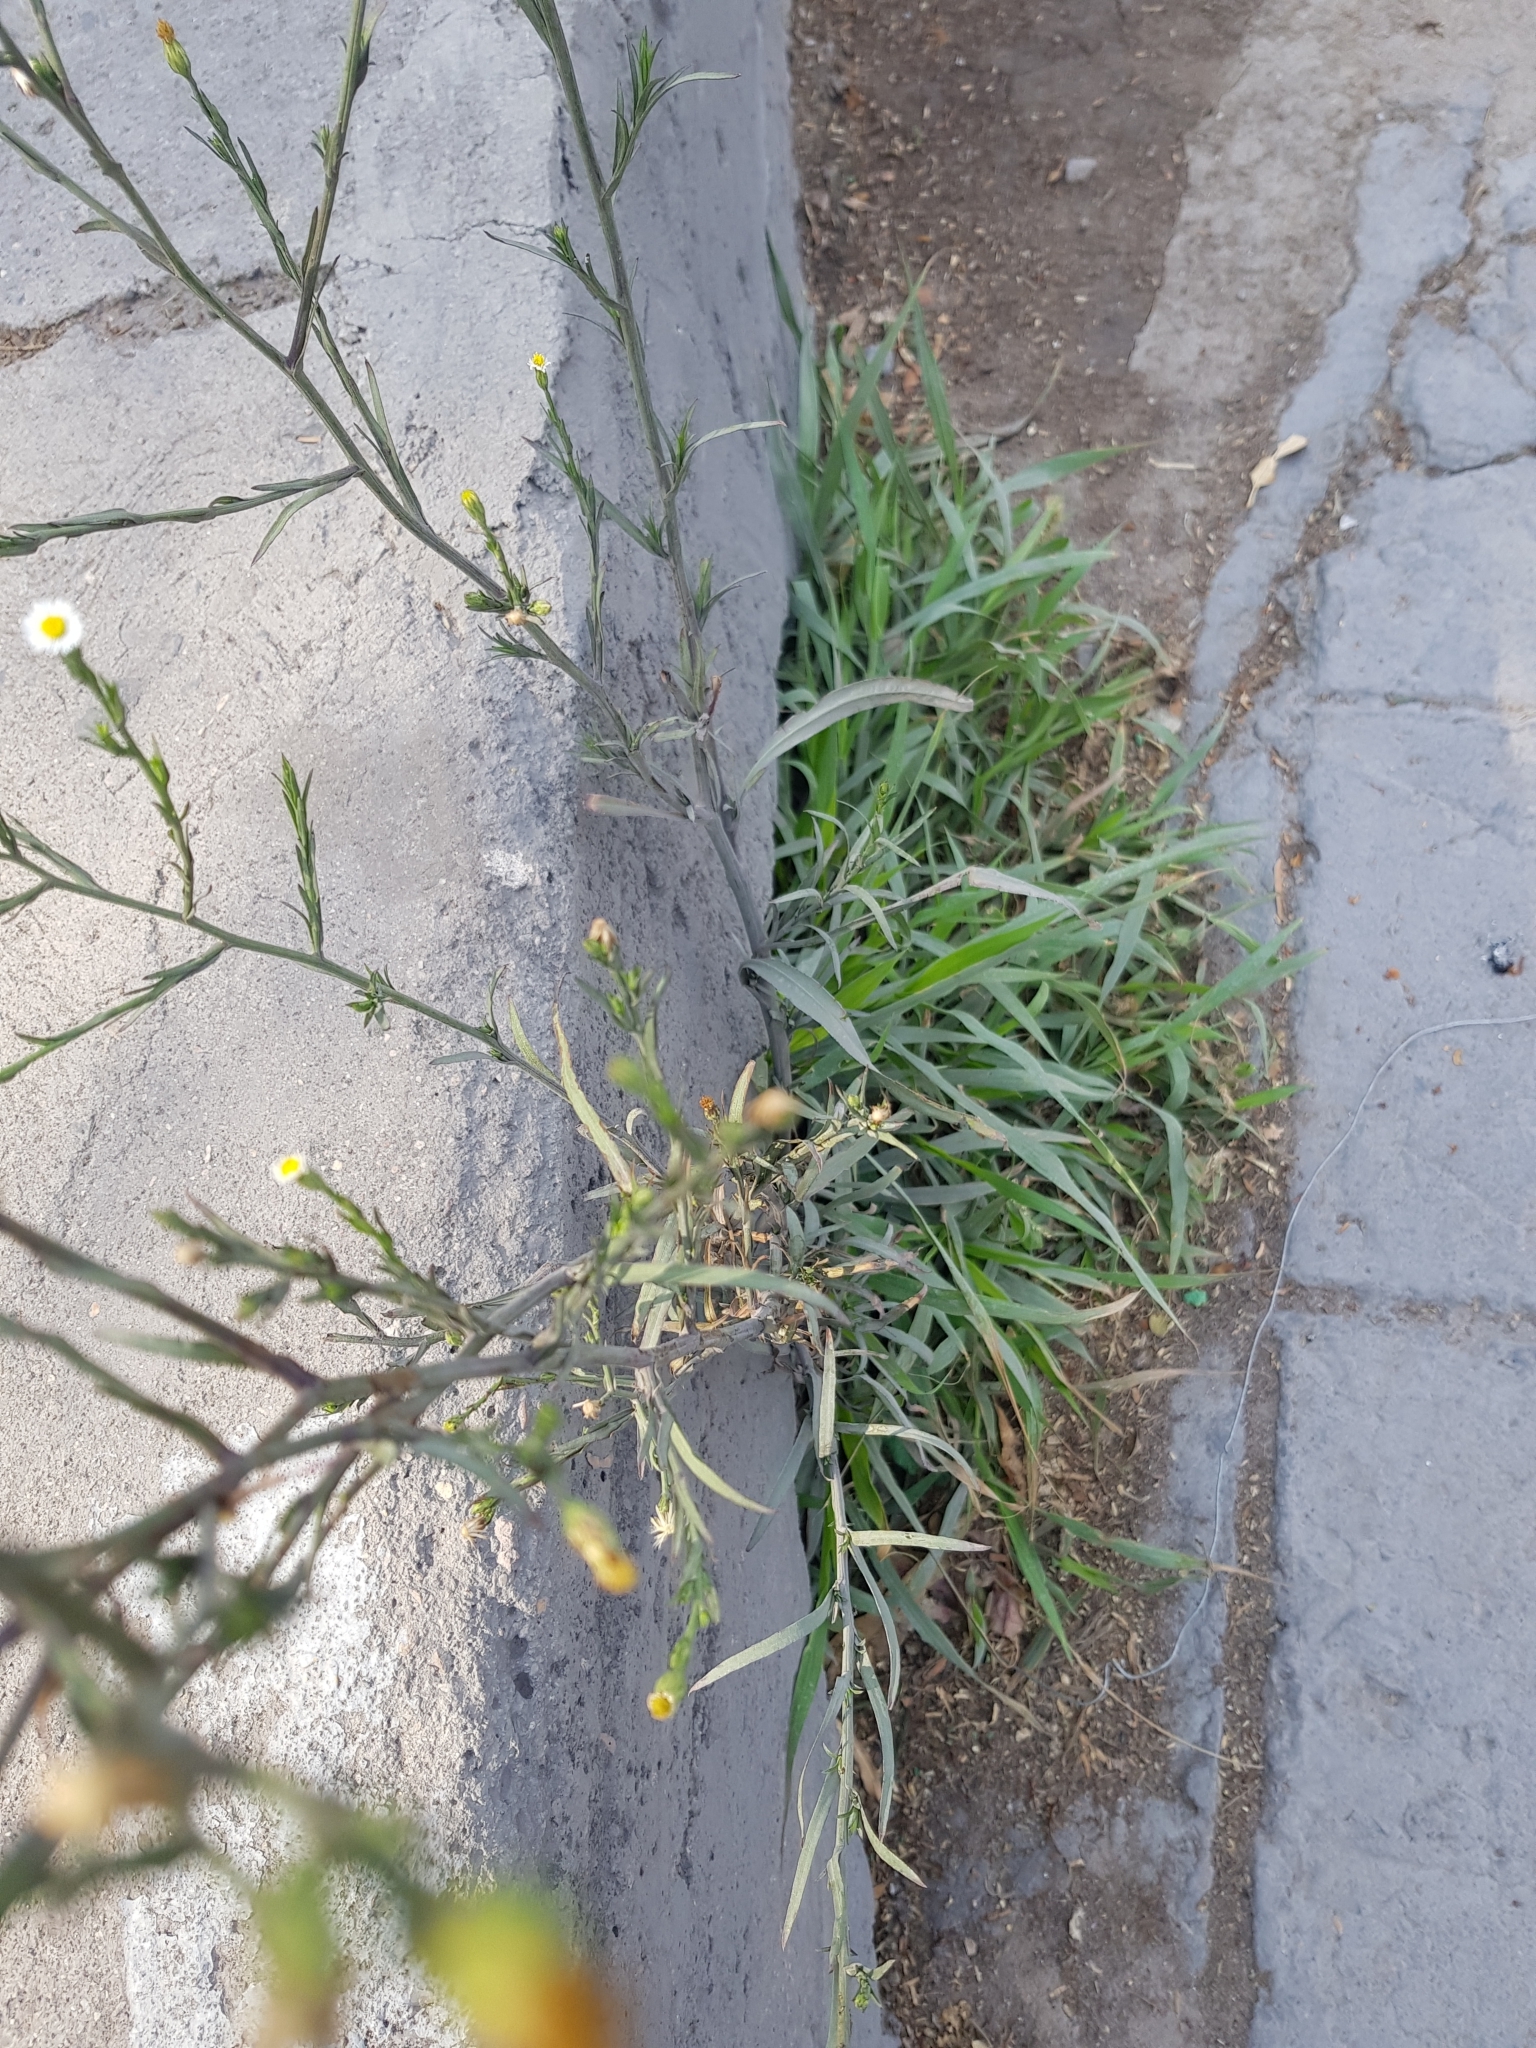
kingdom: Plantae
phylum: Tracheophyta
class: Magnoliopsida
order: Asterales
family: Asteraceae
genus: Symphyotrichum
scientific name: Symphyotrichum subulatum
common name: Annual saltmarsh aster
